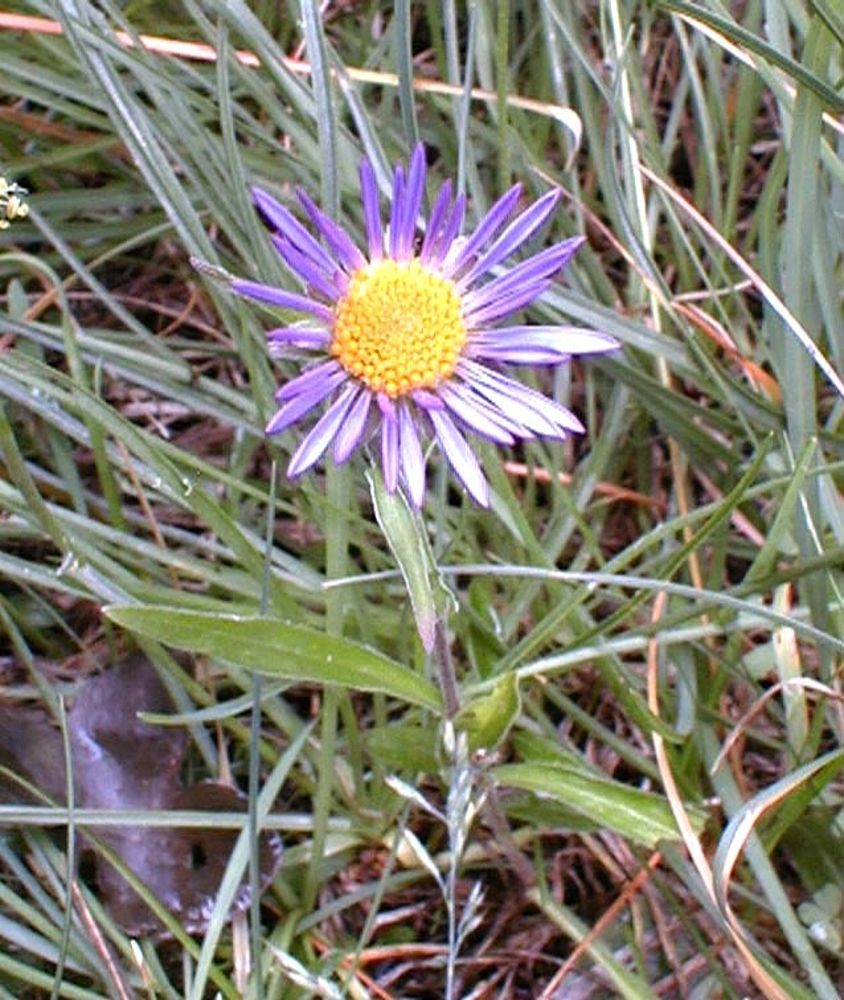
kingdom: Plantae
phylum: Tracheophyta
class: Magnoliopsida
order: Asterales
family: Asteraceae
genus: Aster
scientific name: Aster alpinus
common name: Alpine aster
